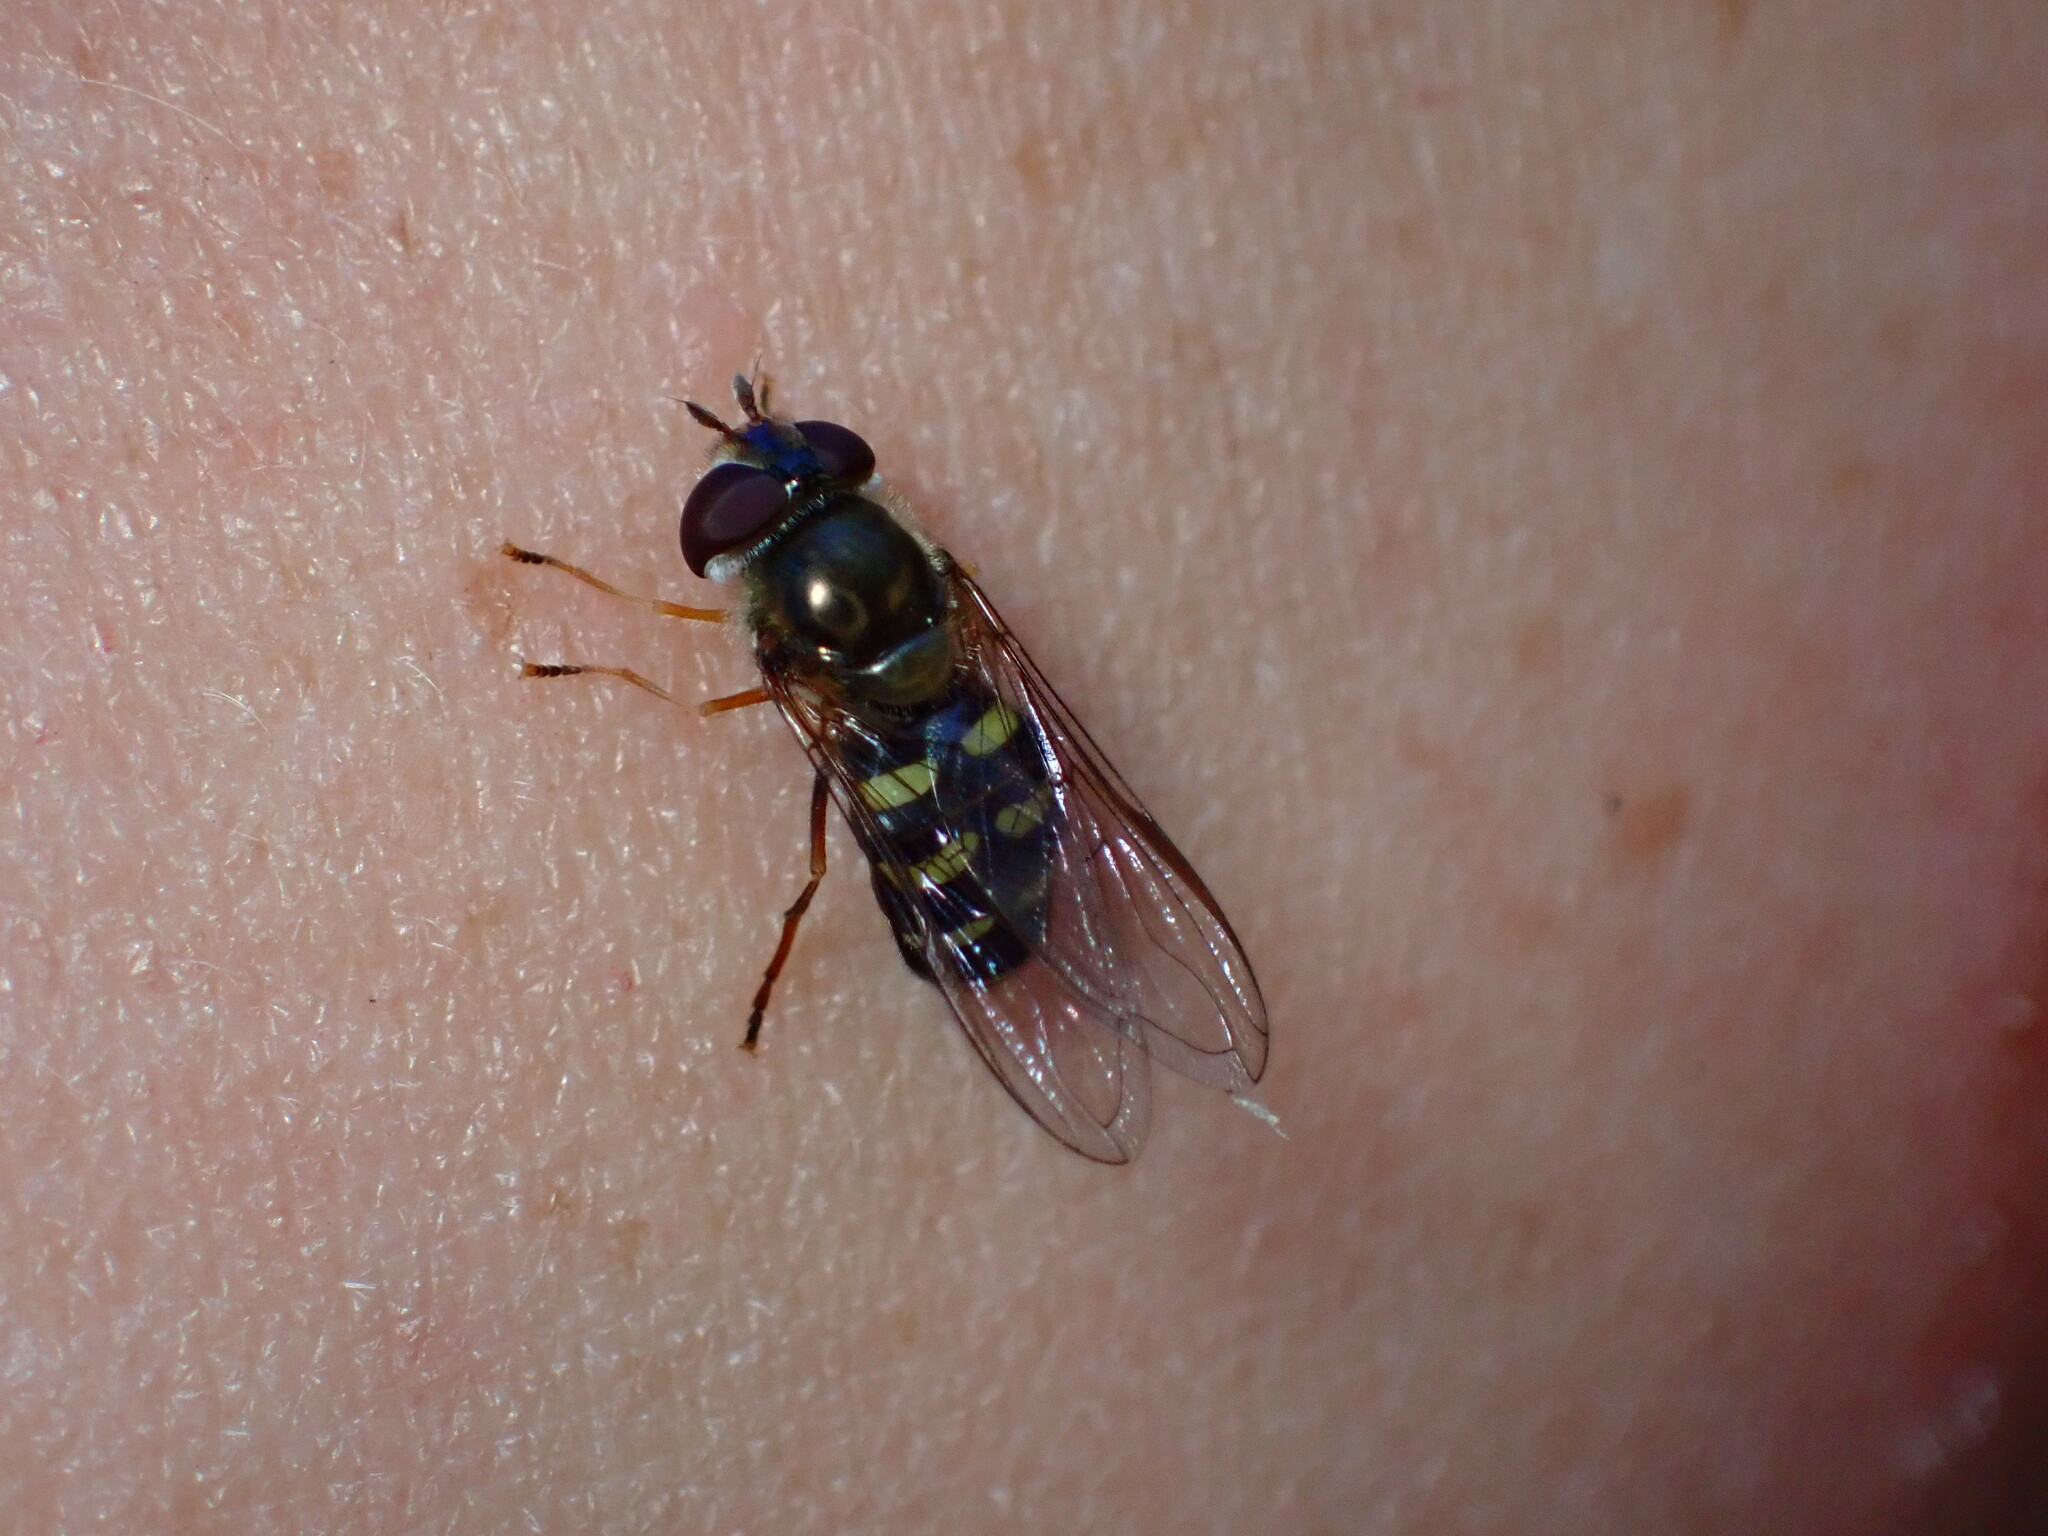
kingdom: Animalia
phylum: Arthropoda
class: Insecta
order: Diptera
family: Syrphidae
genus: Lapposyrphus
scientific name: Lapposyrphus lapponicus
